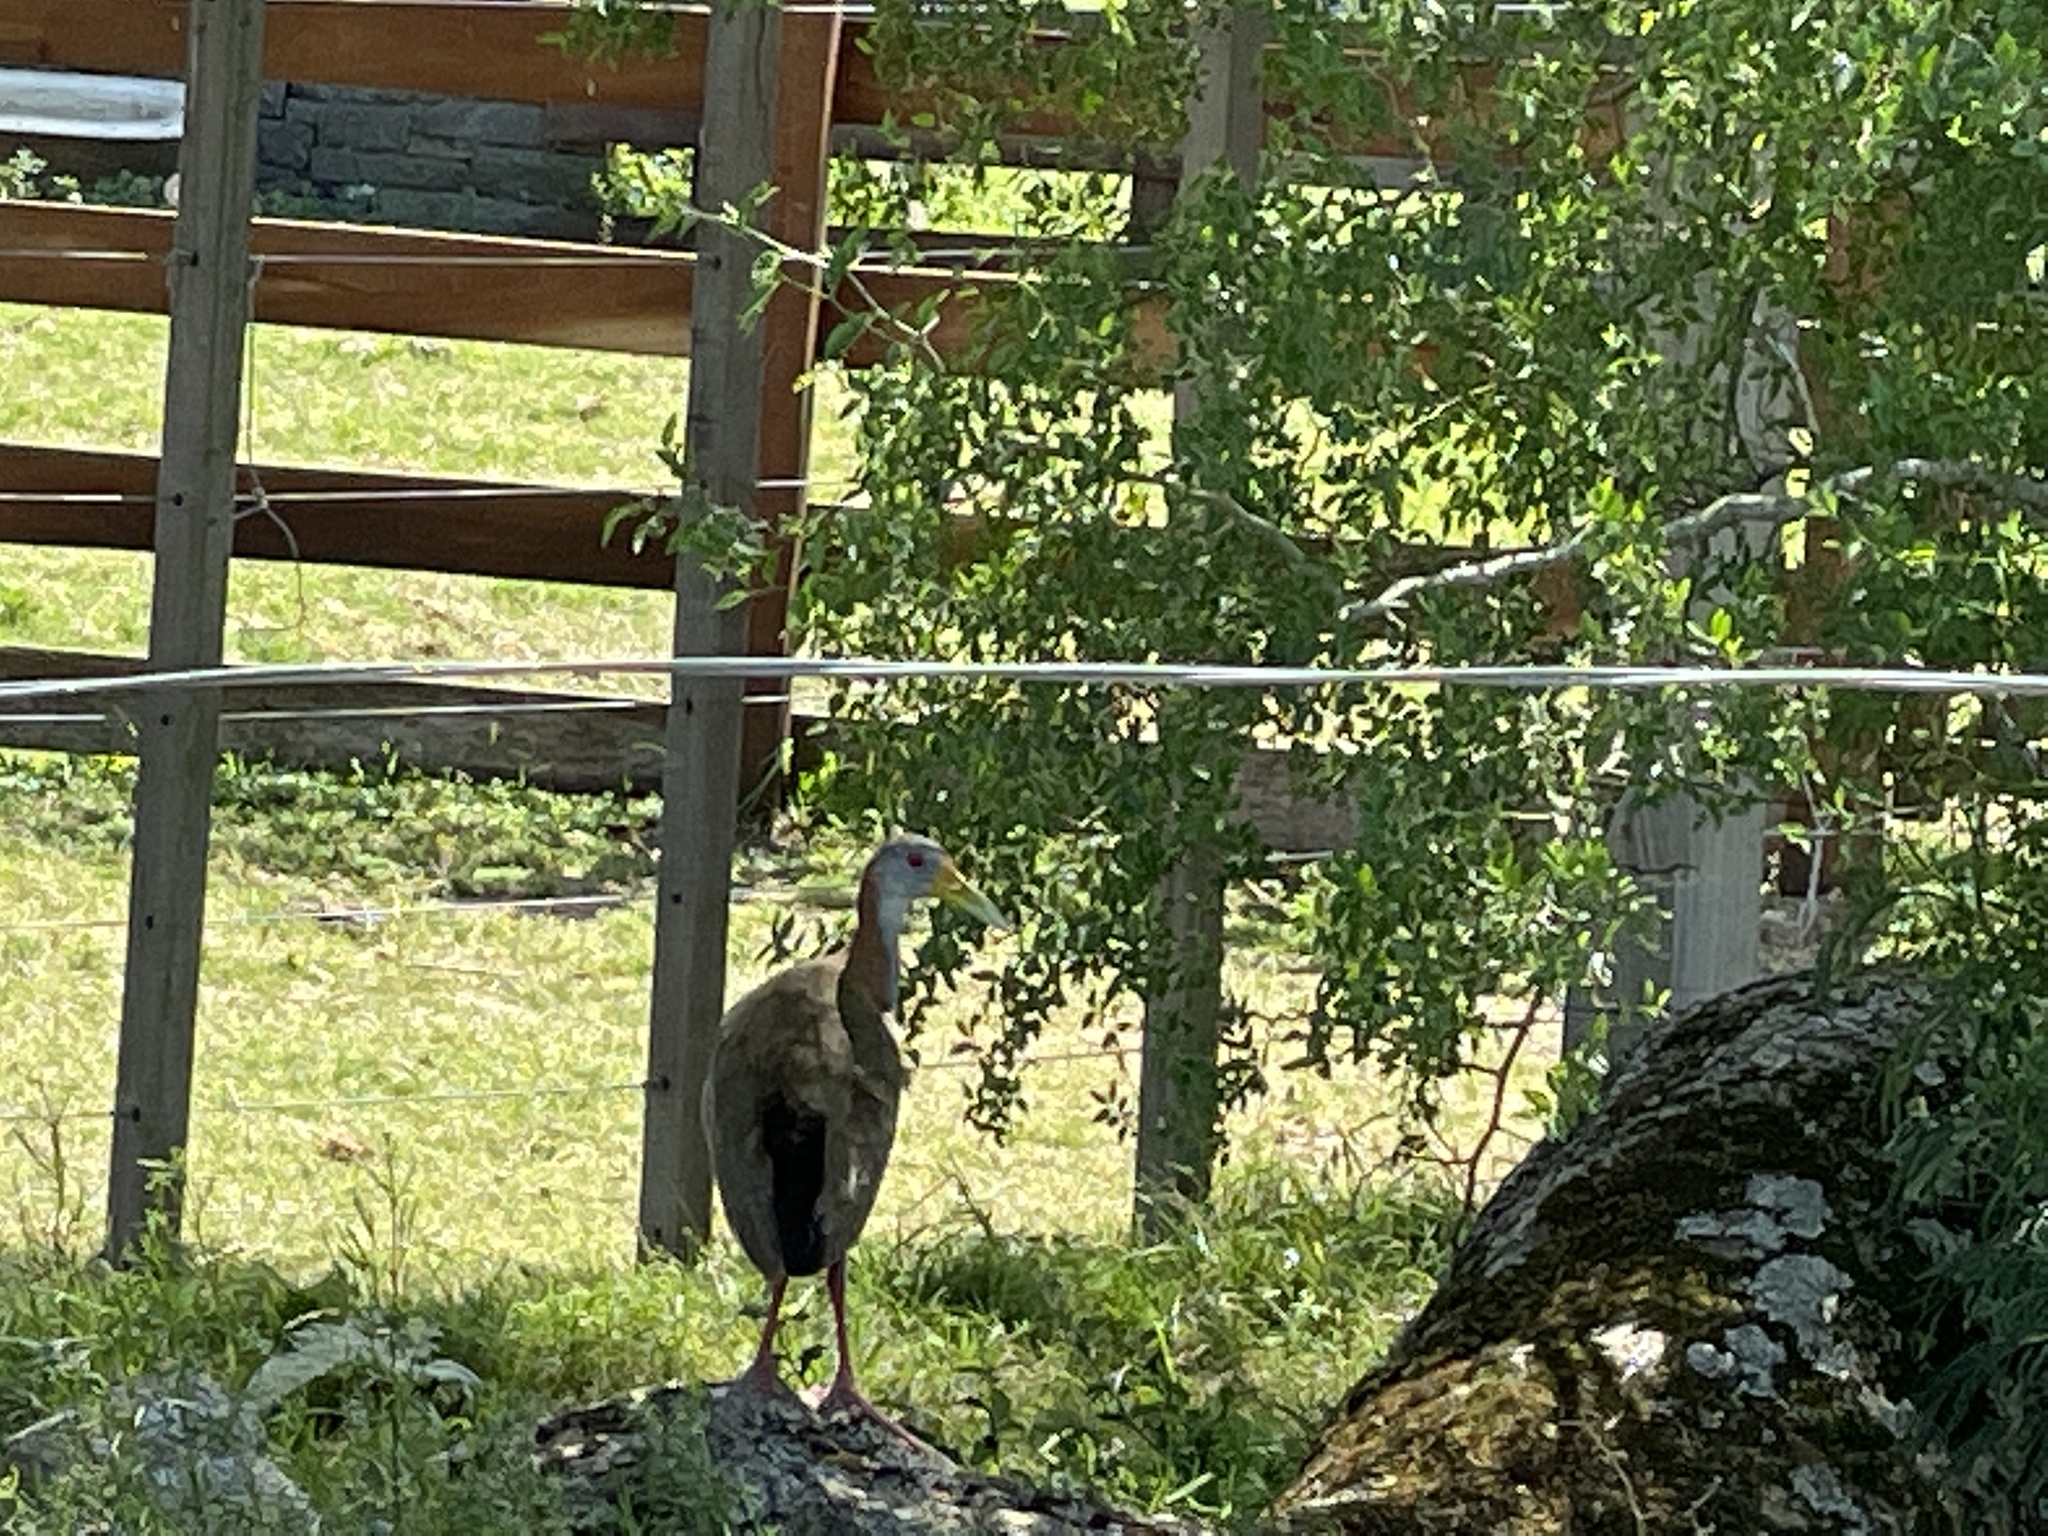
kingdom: Animalia
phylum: Chordata
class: Aves
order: Gruiformes
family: Rallidae
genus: Aramides
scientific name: Aramides ypecaha
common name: Giant wood rail
